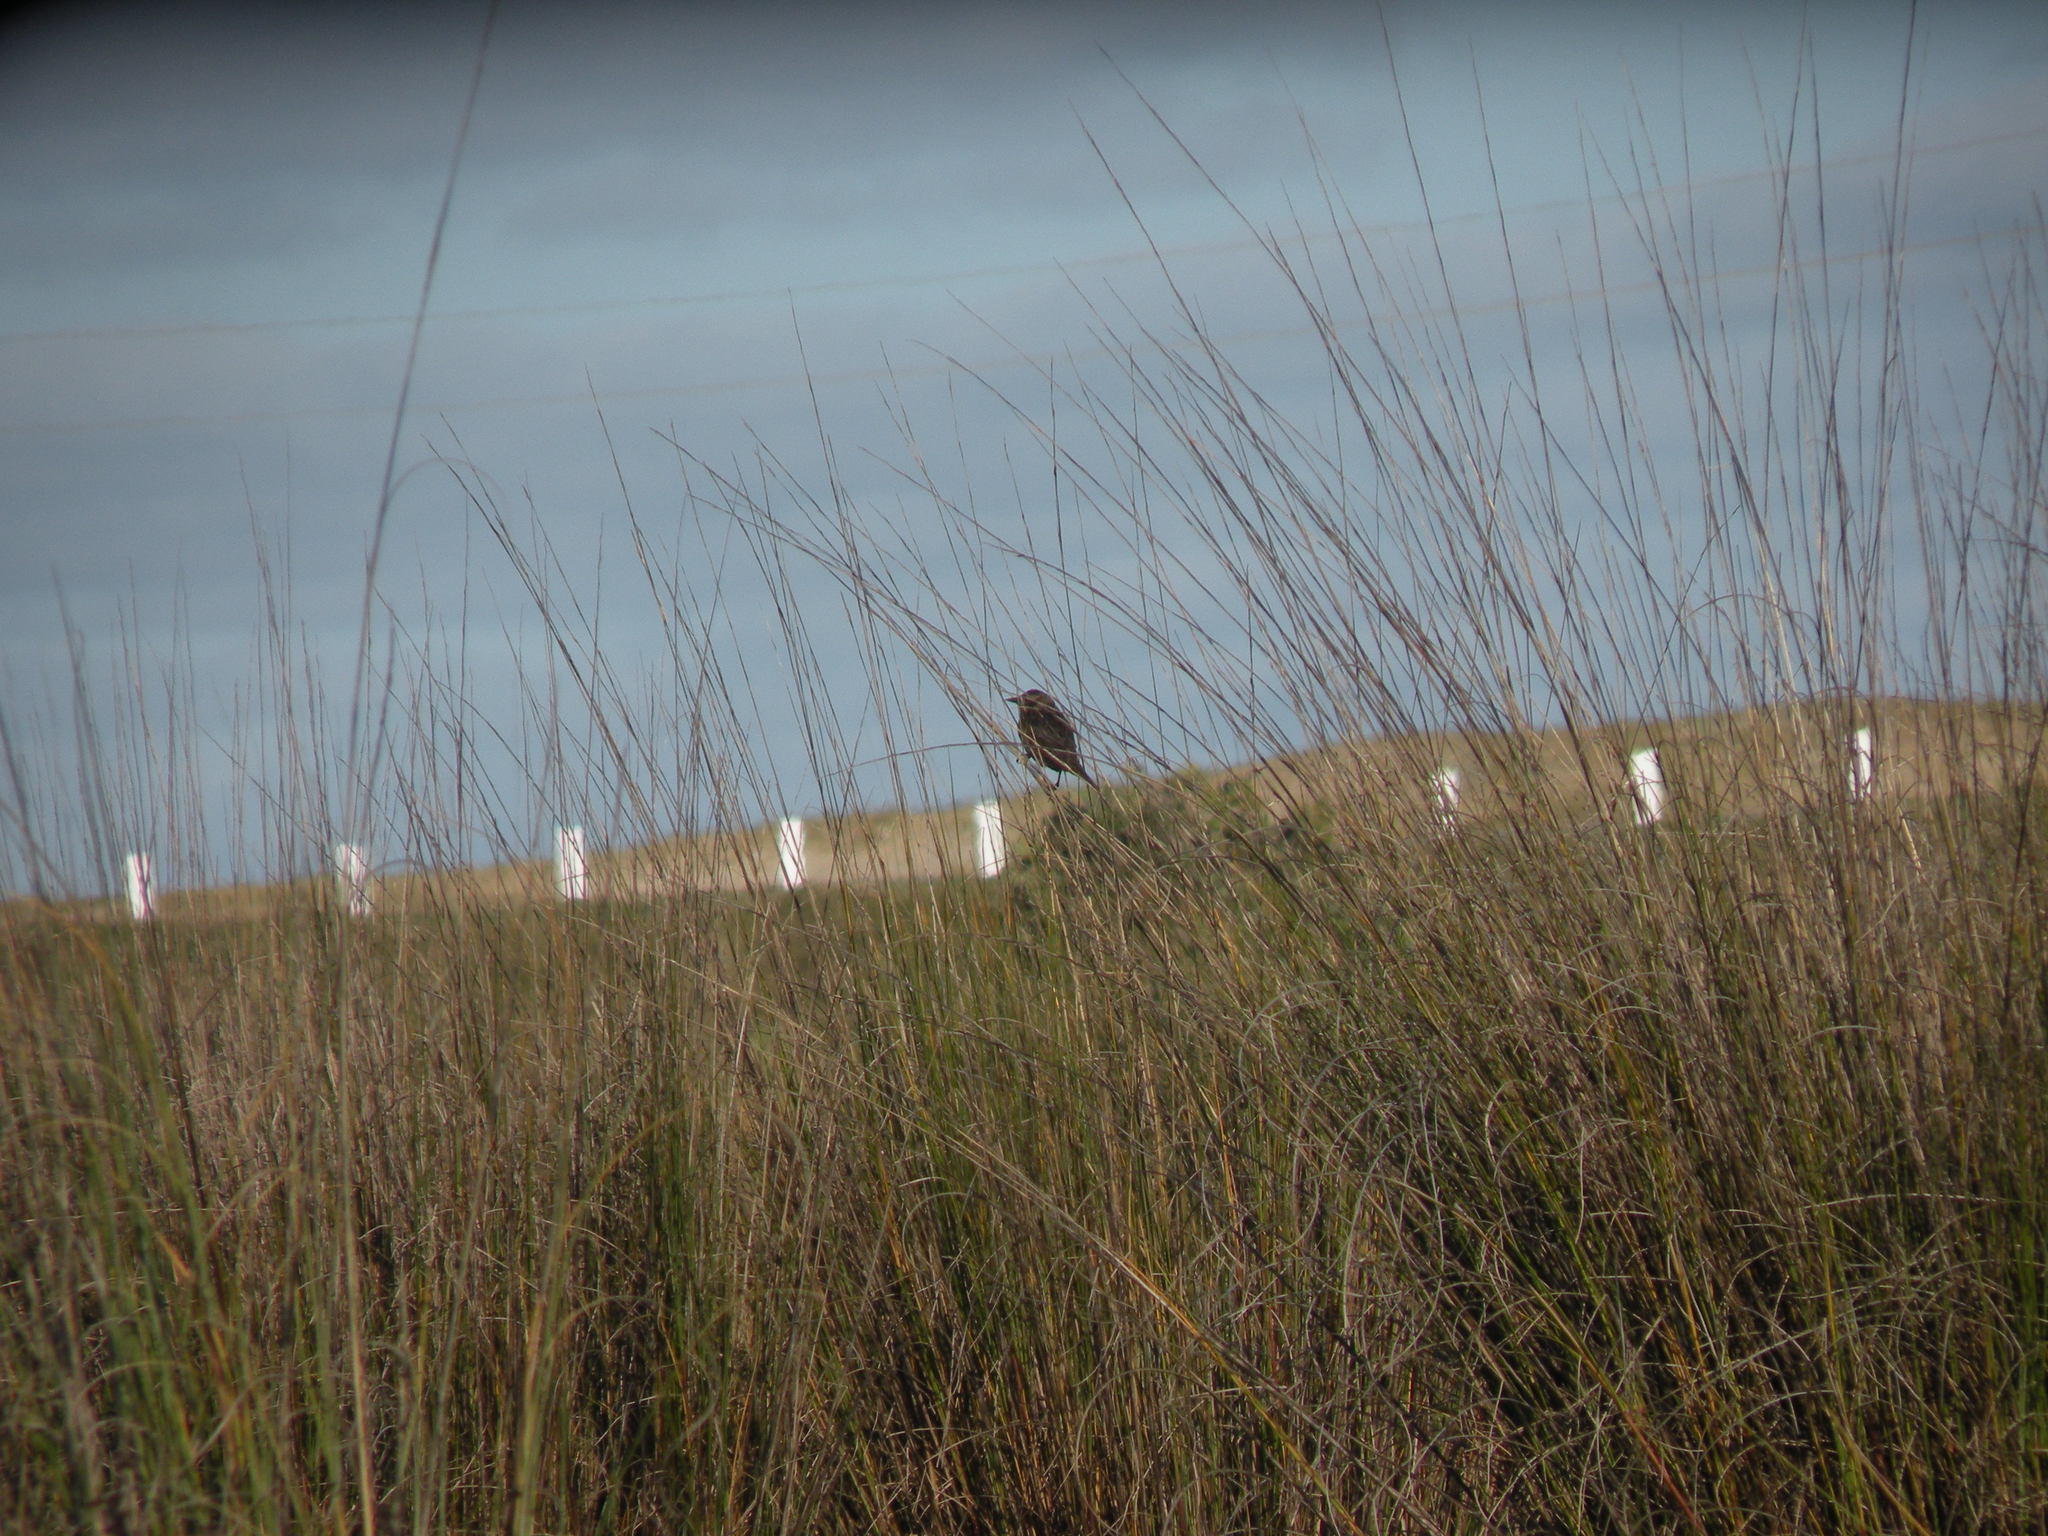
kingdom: Animalia
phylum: Chordata
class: Aves
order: Passeriformes
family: Icteridae
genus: Agelasticus
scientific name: Agelasticus thilius
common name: Yellow-winged blackbird
